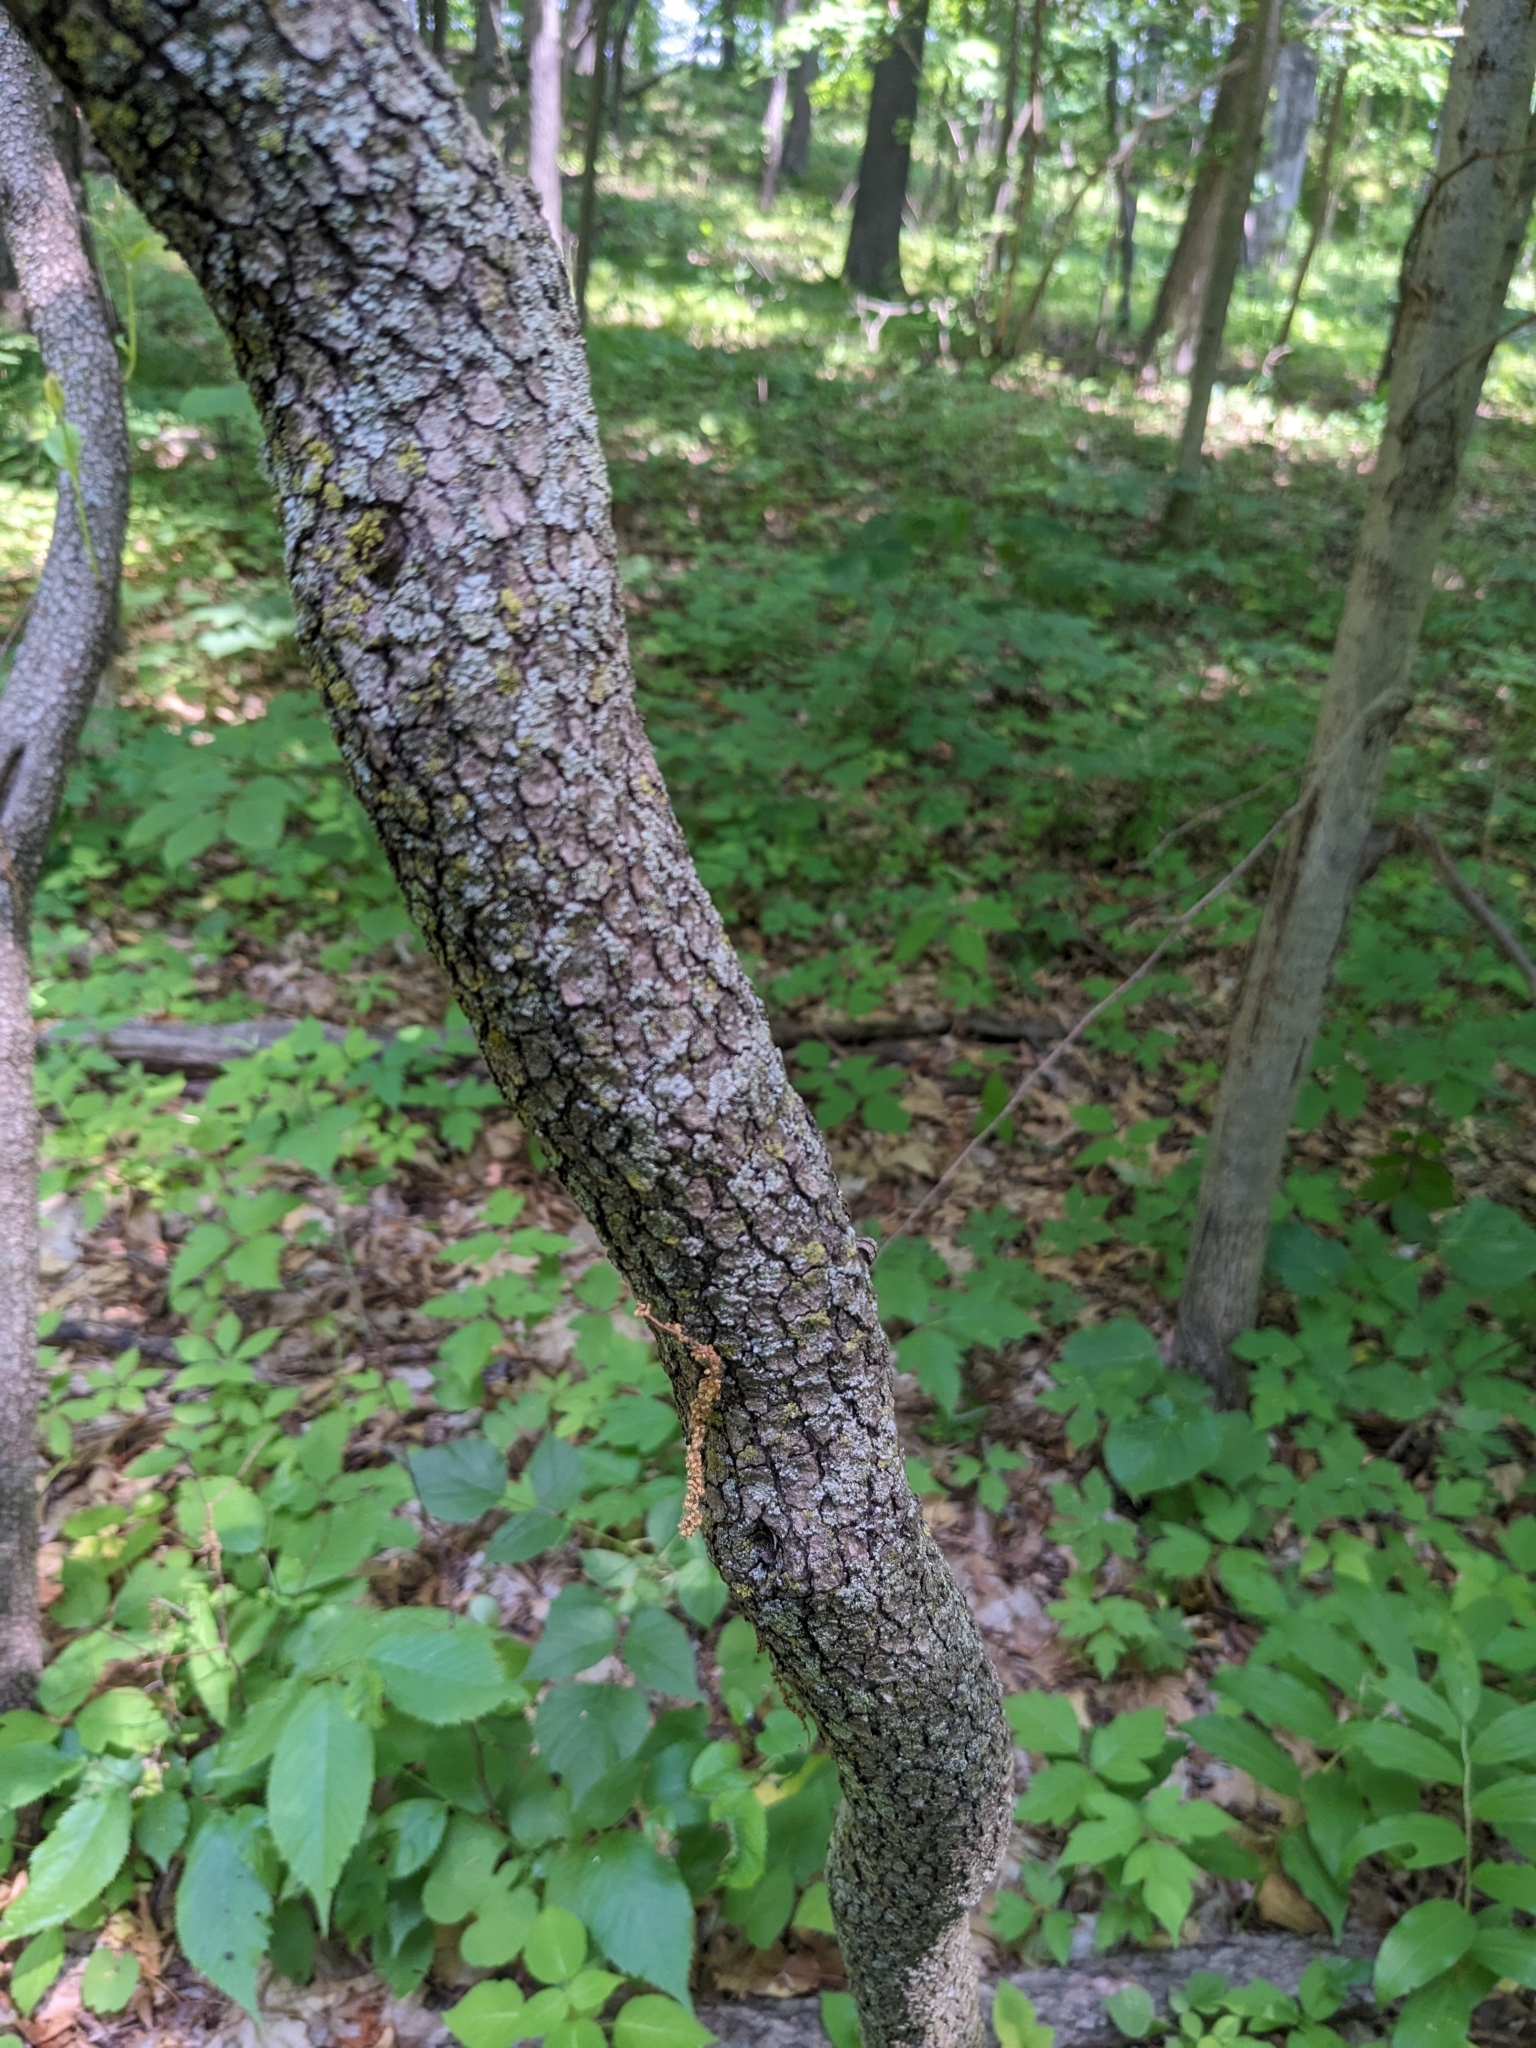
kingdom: Plantae
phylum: Tracheophyta
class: Magnoliopsida
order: Dipsacales
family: Viburnaceae
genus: Viburnum
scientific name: Viburnum lentago
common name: Black haw
